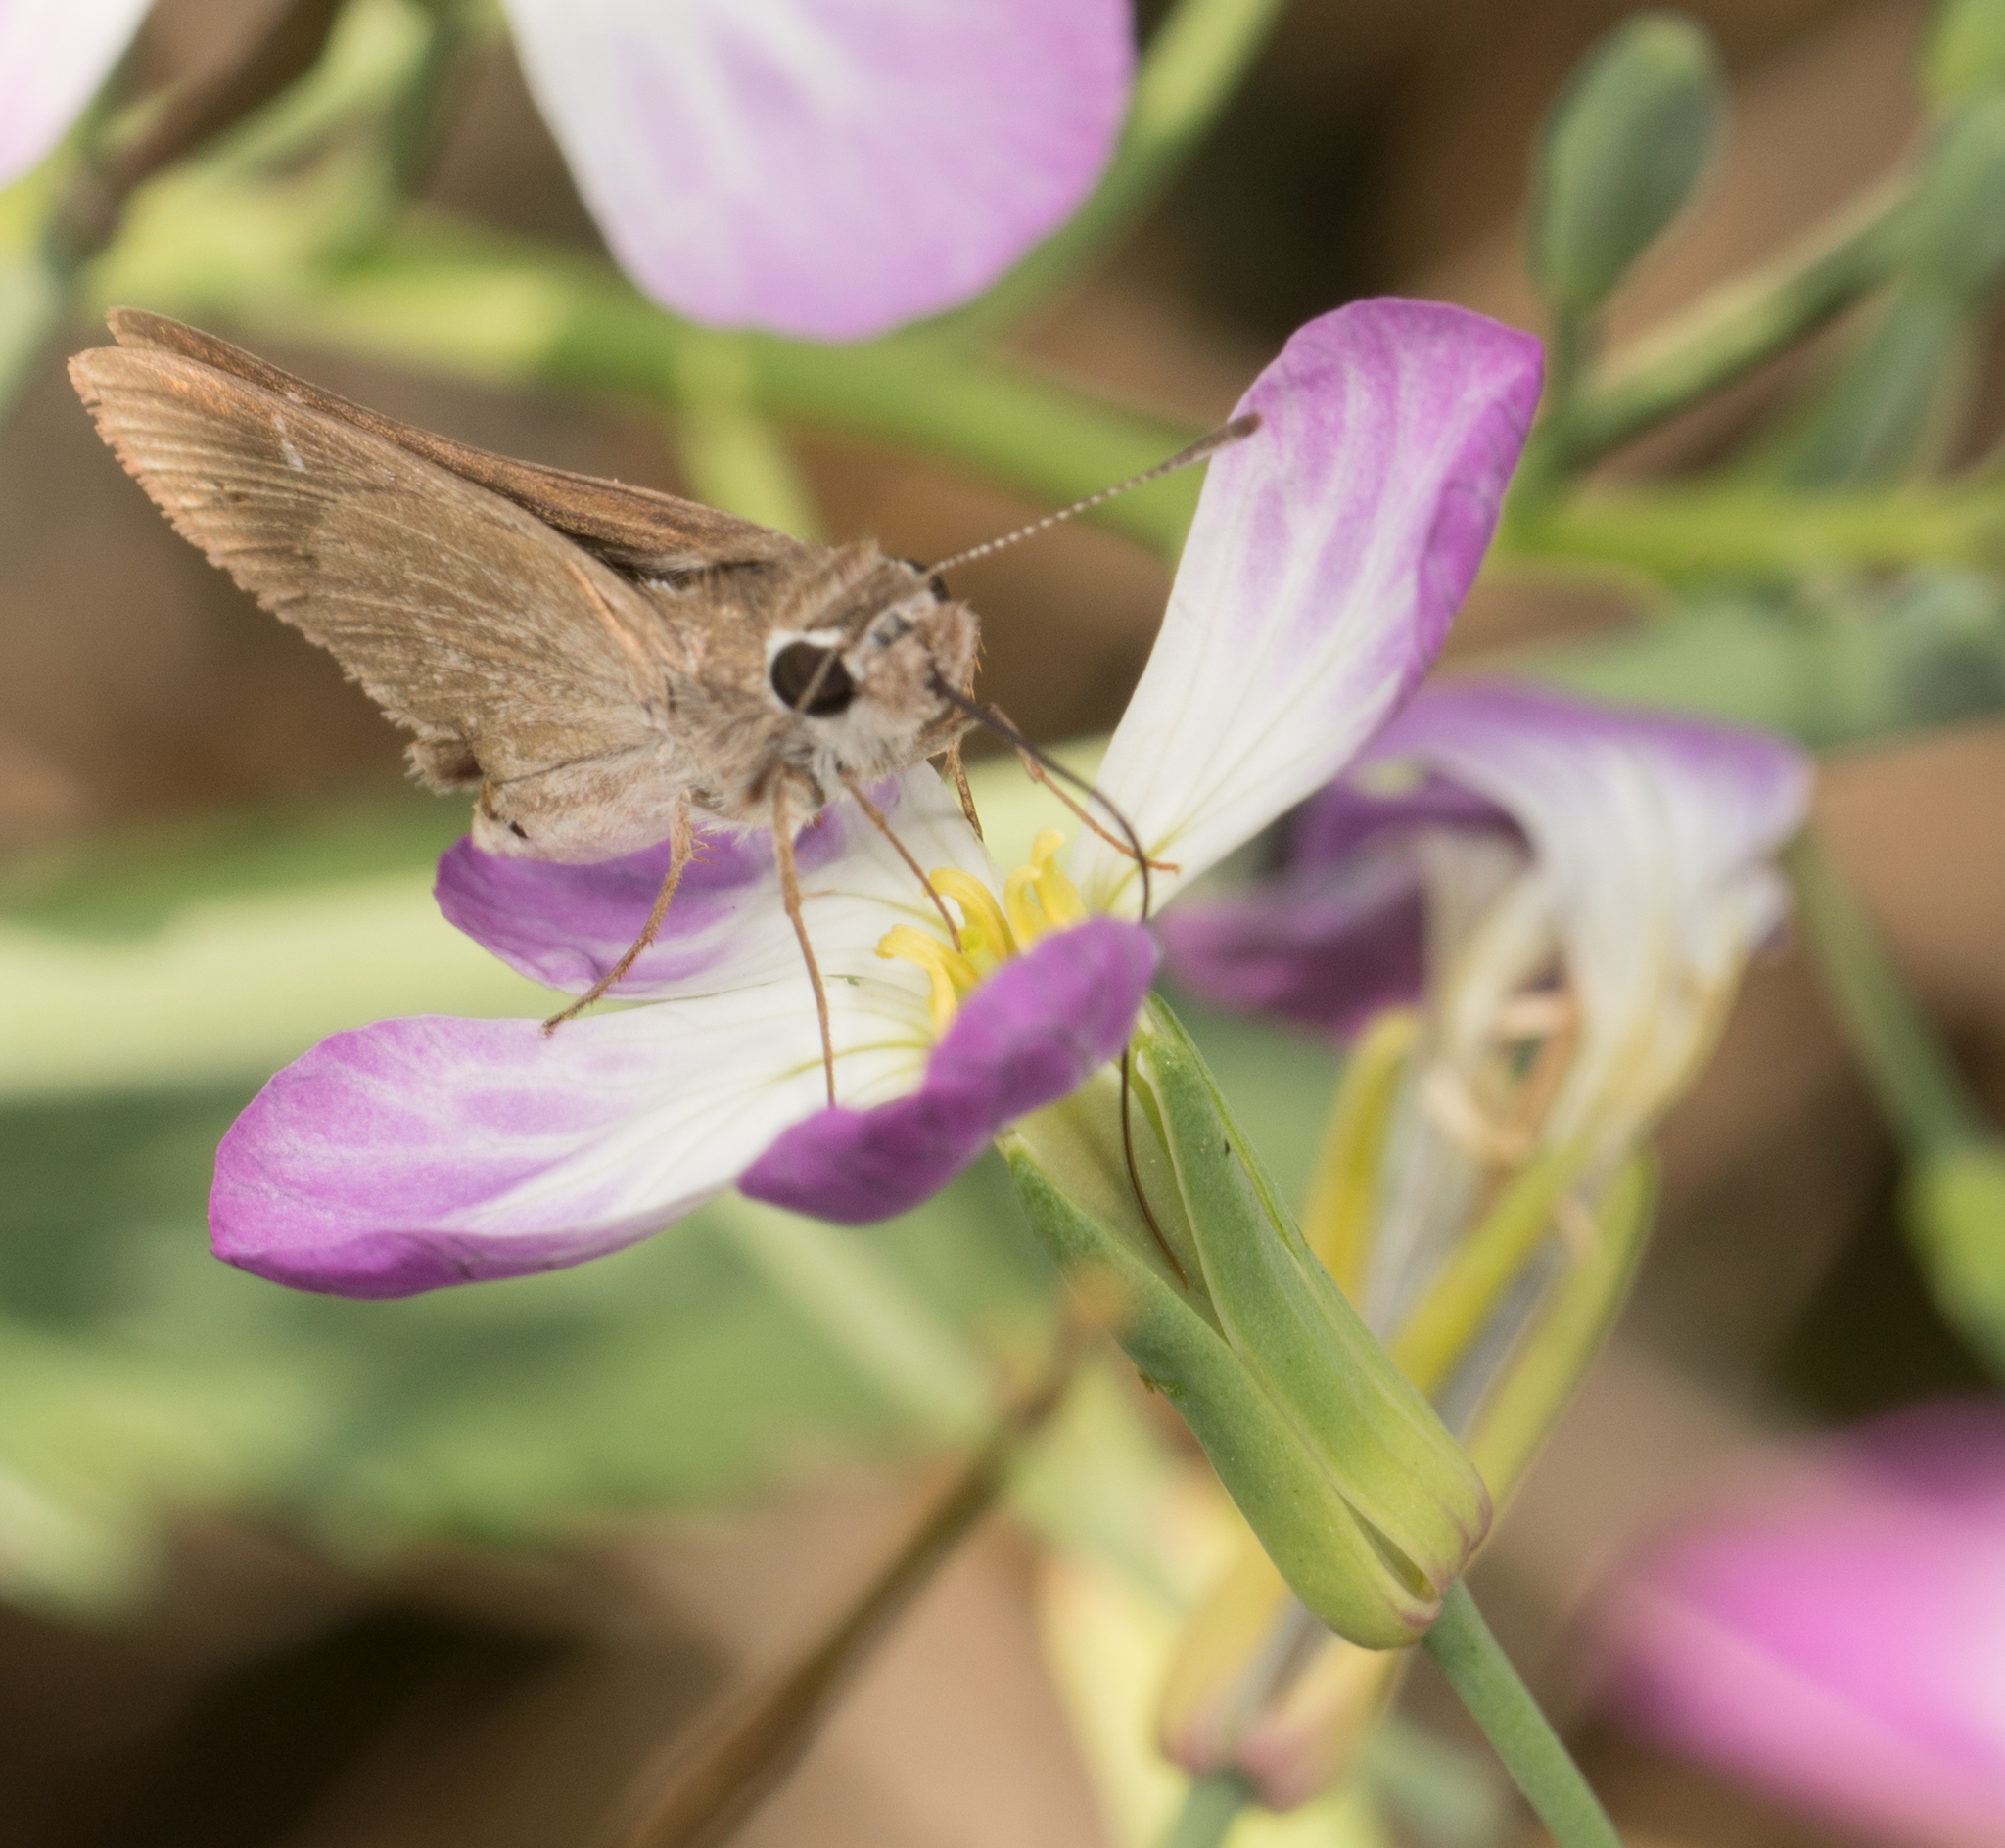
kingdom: Animalia
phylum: Arthropoda
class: Insecta
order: Lepidoptera
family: Hesperiidae
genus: Lerodea
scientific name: Lerodea eufala
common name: Eufala skipper
